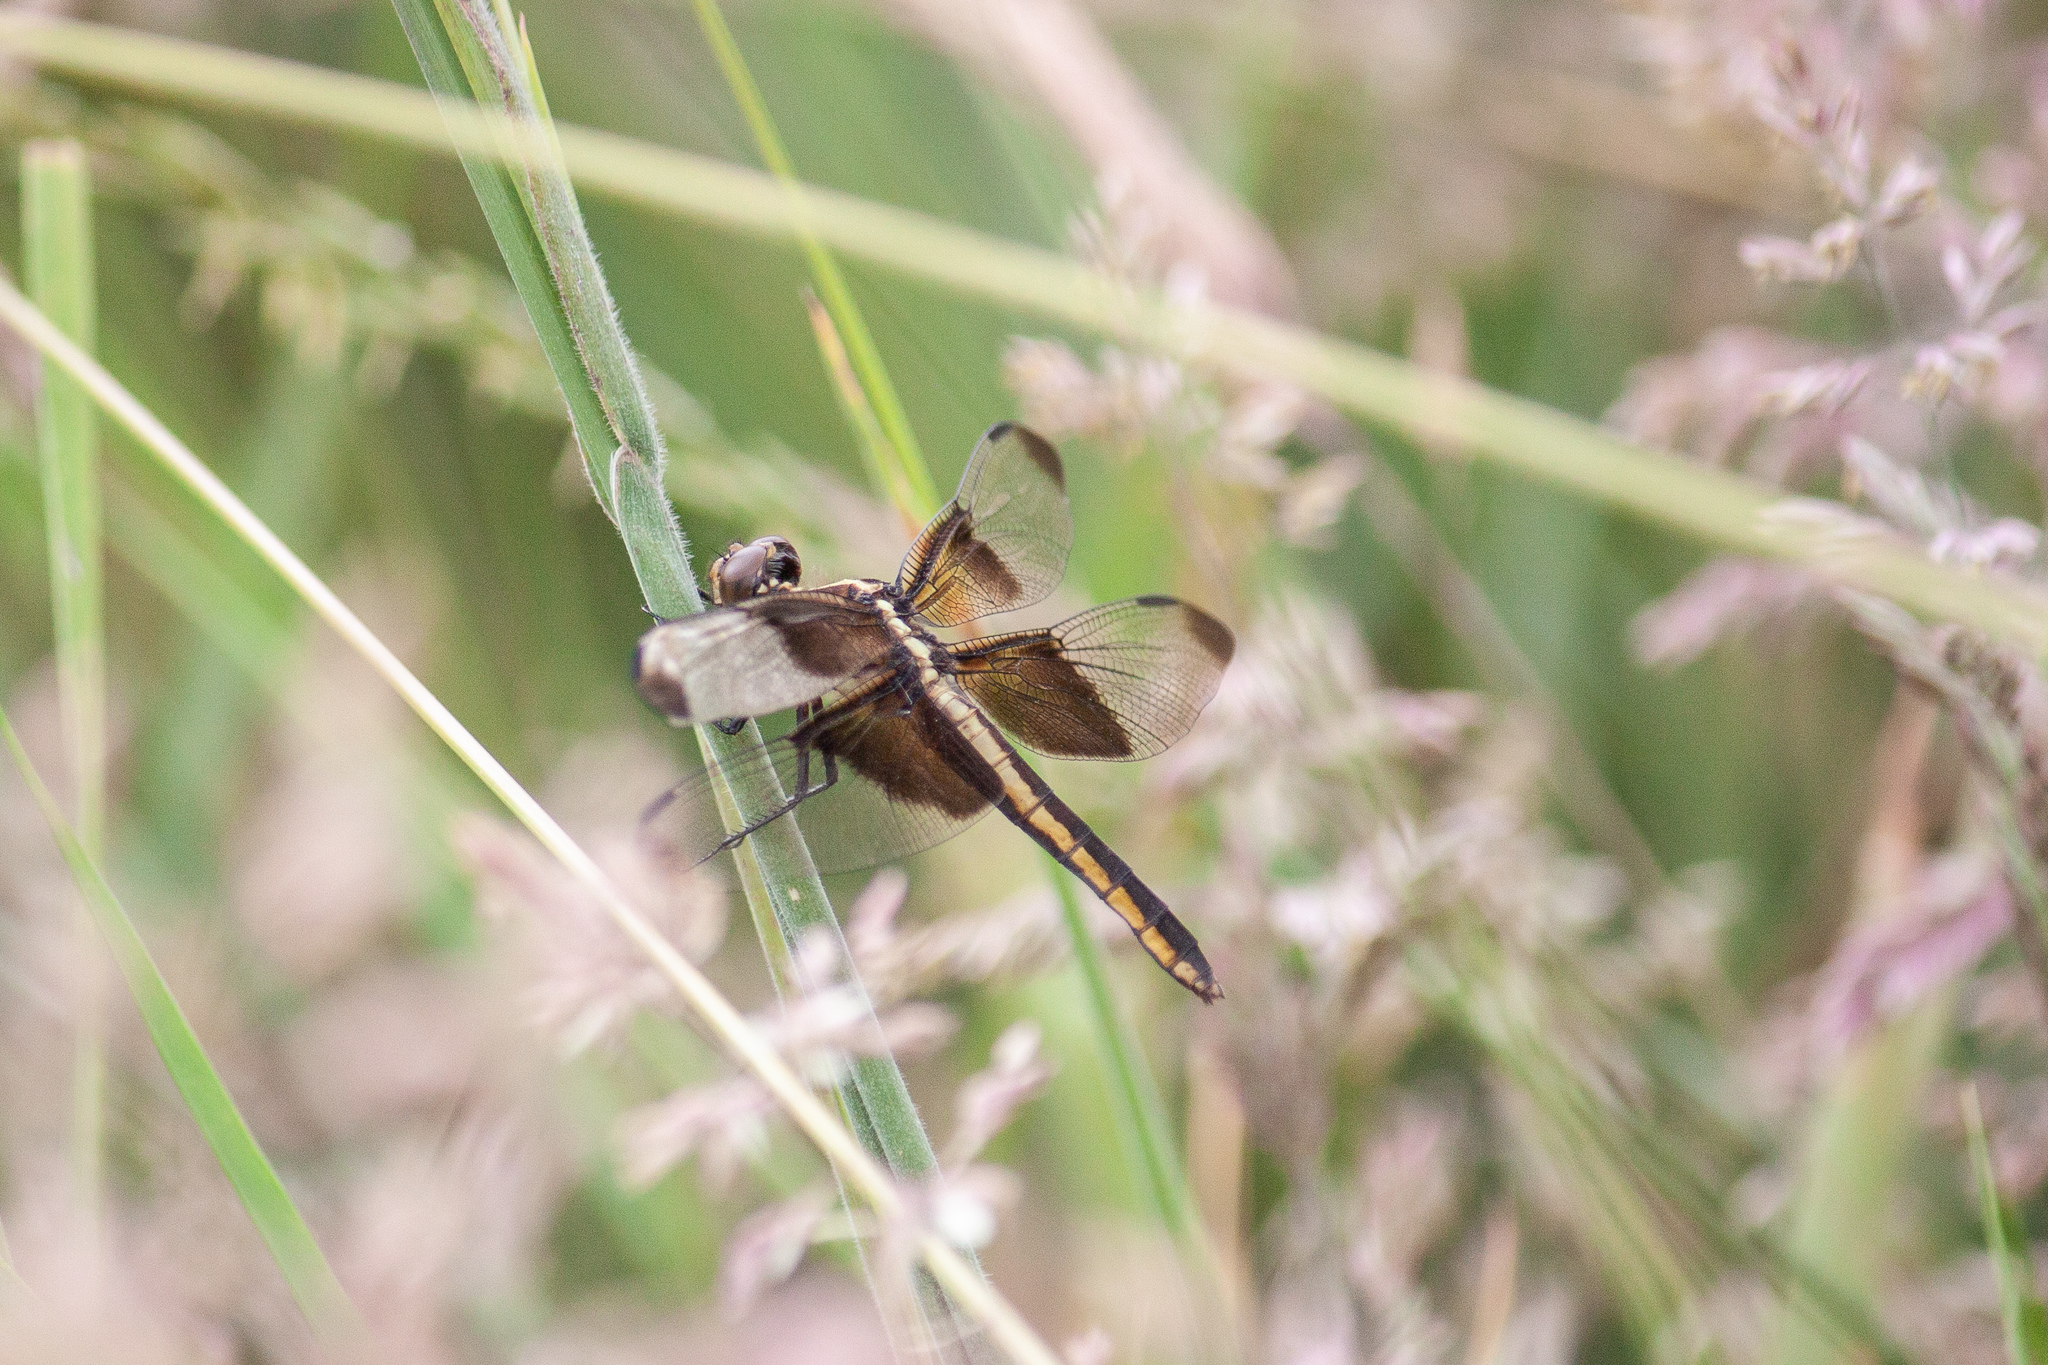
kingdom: Animalia
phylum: Arthropoda
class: Insecta
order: Odonata
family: Libellulidae
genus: Libellula
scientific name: Libellula luctuosa
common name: Widow skimmer
